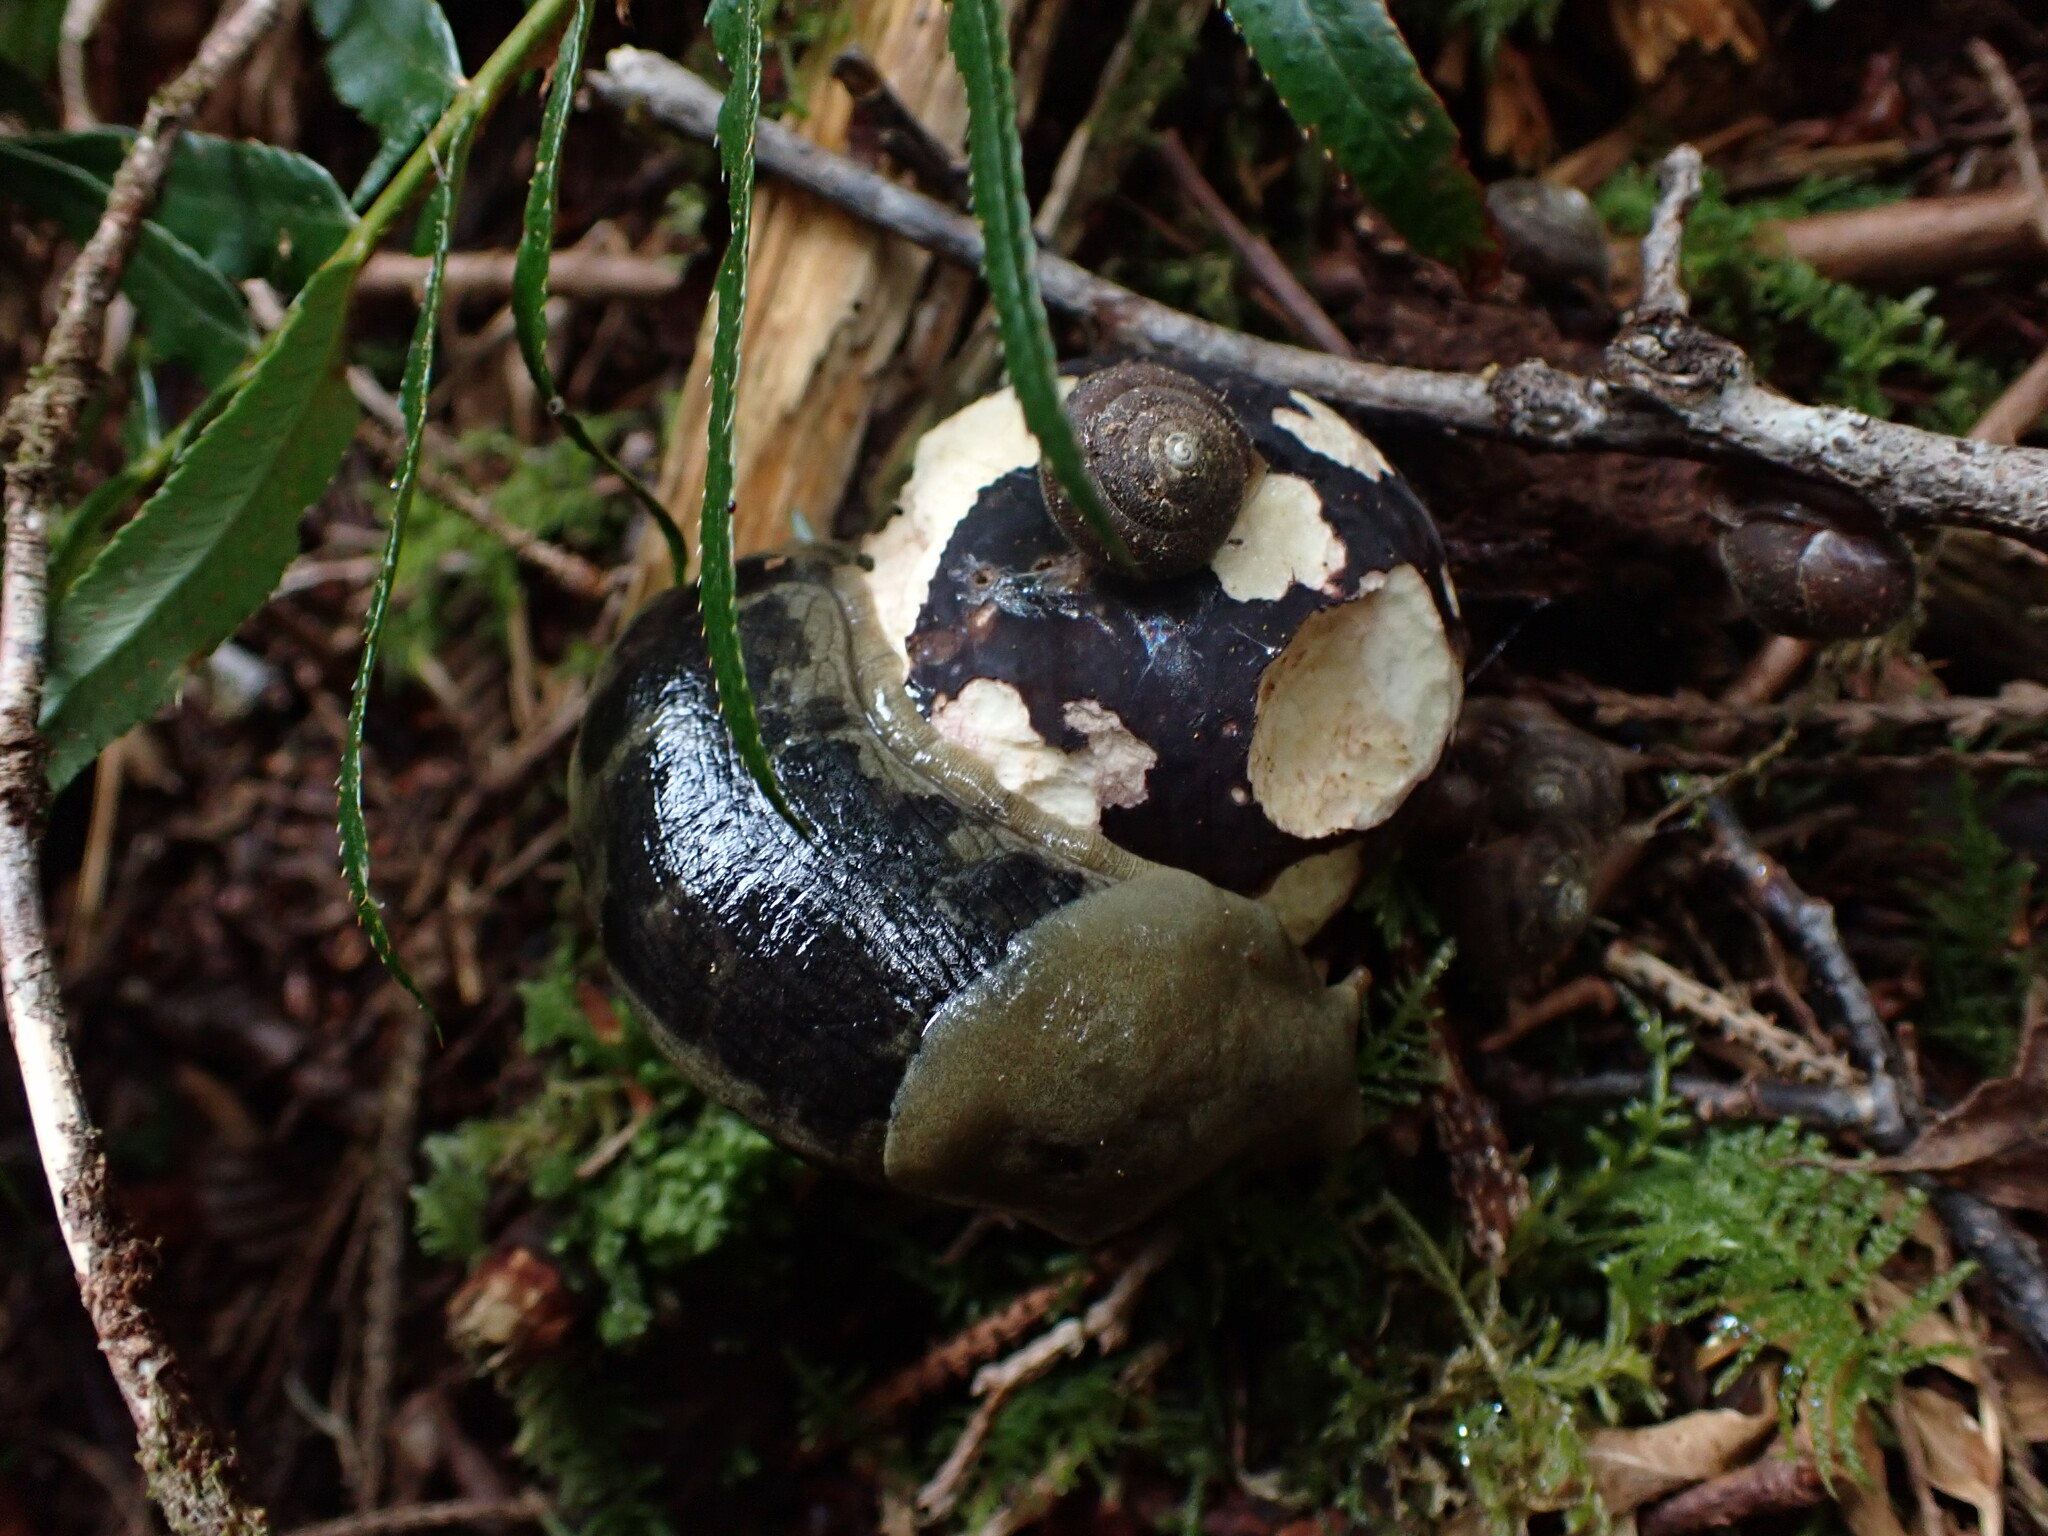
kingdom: Animalia
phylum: Mollusca
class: Gastropoda
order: Stylommatophora
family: Ariolimacidae
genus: Ariolimax
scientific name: Ariolimax columbianus
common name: Pacific banana slug
